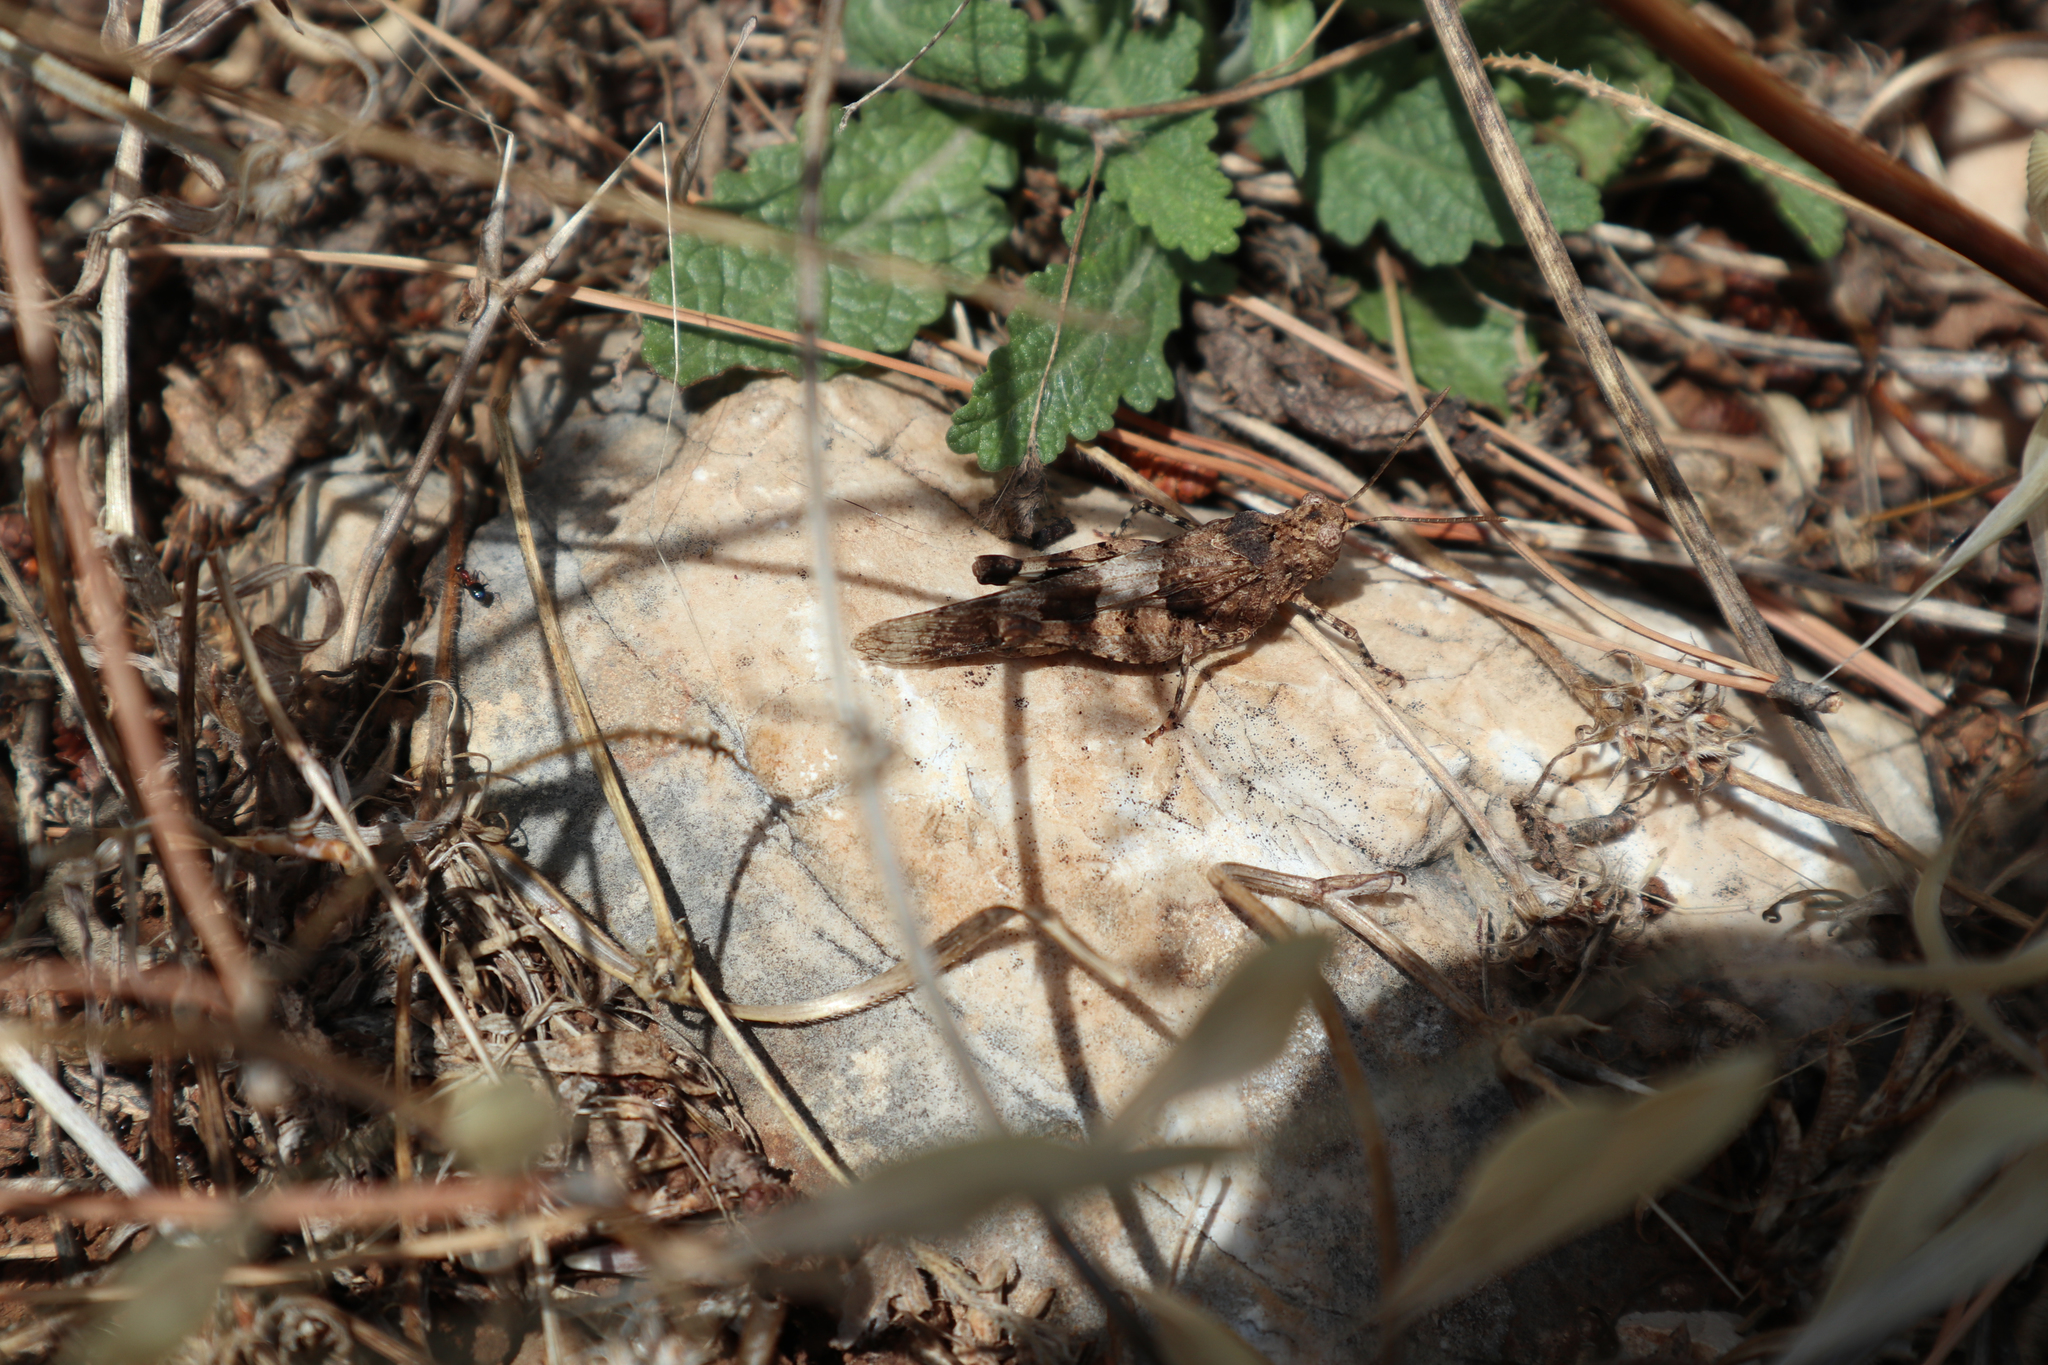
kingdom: Animalia
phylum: Arthropoda
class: Insecta
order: Orthoptera
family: Acrididae
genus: Oedipoda
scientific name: Oedipoda caerulescens
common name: Blue-winged grasshopper
